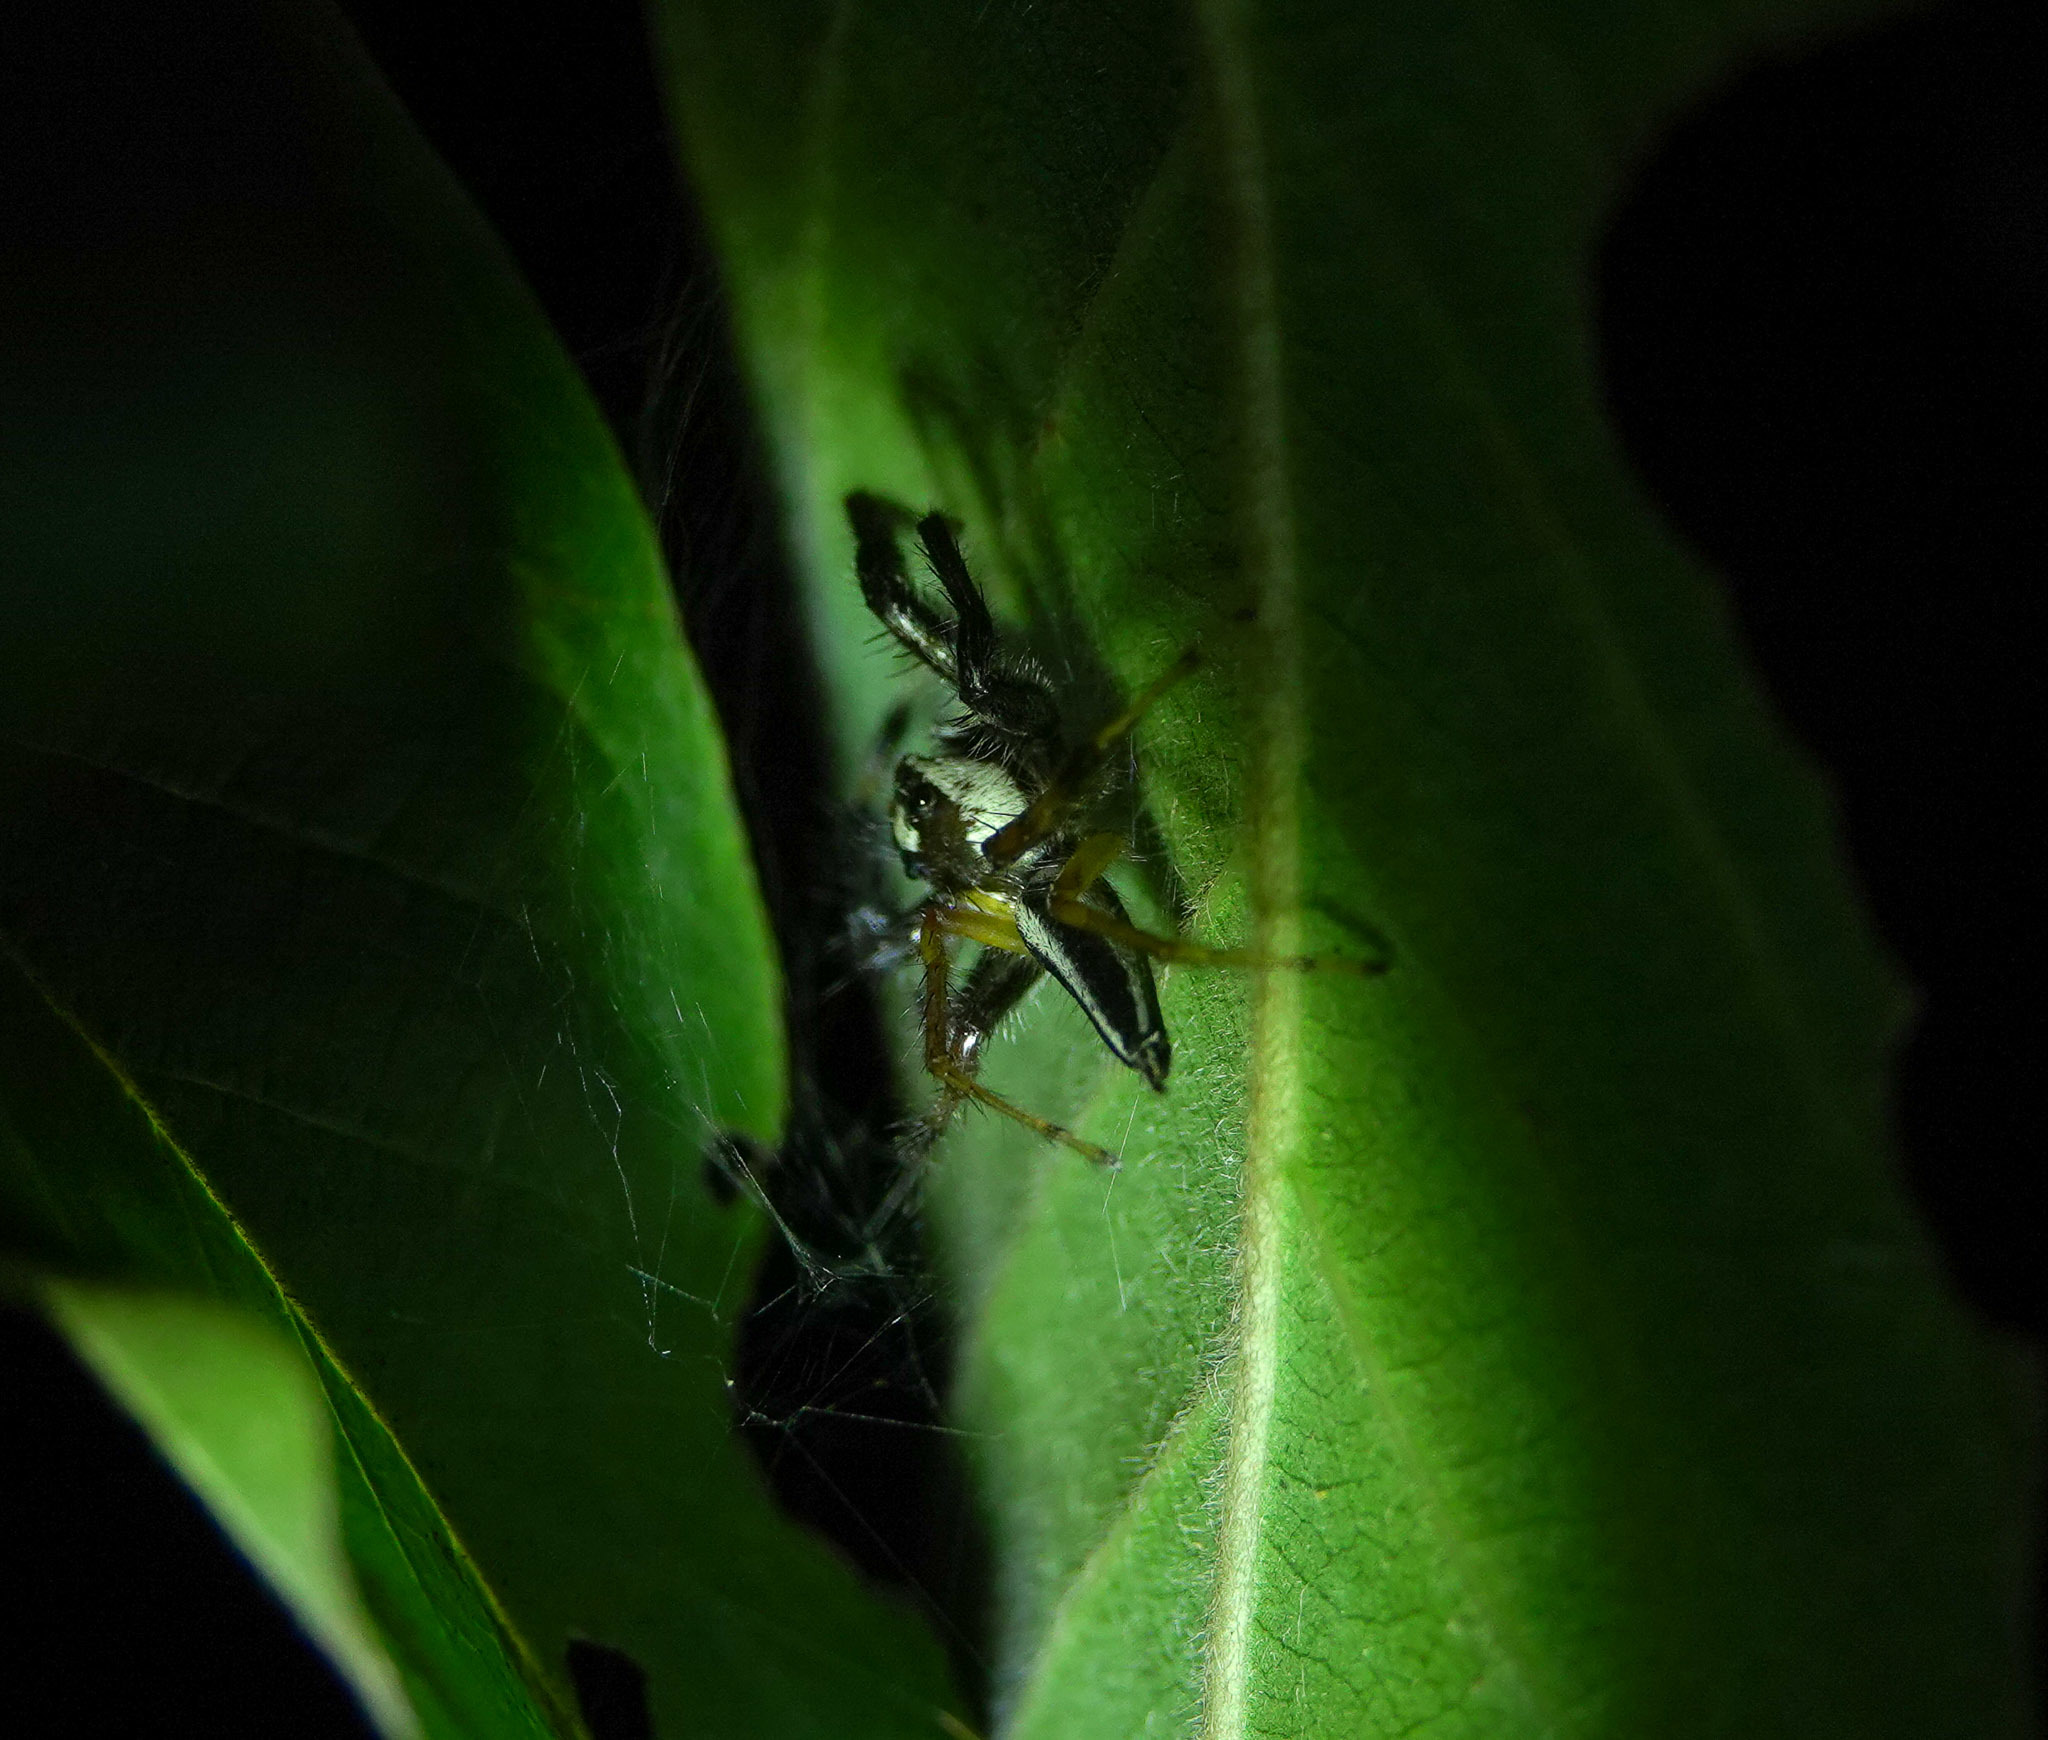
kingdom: Animalia
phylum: Arthropoda
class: Arachnida
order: Araneae
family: Salticidae
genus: Telamonia
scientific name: Telamonia dimidiata
